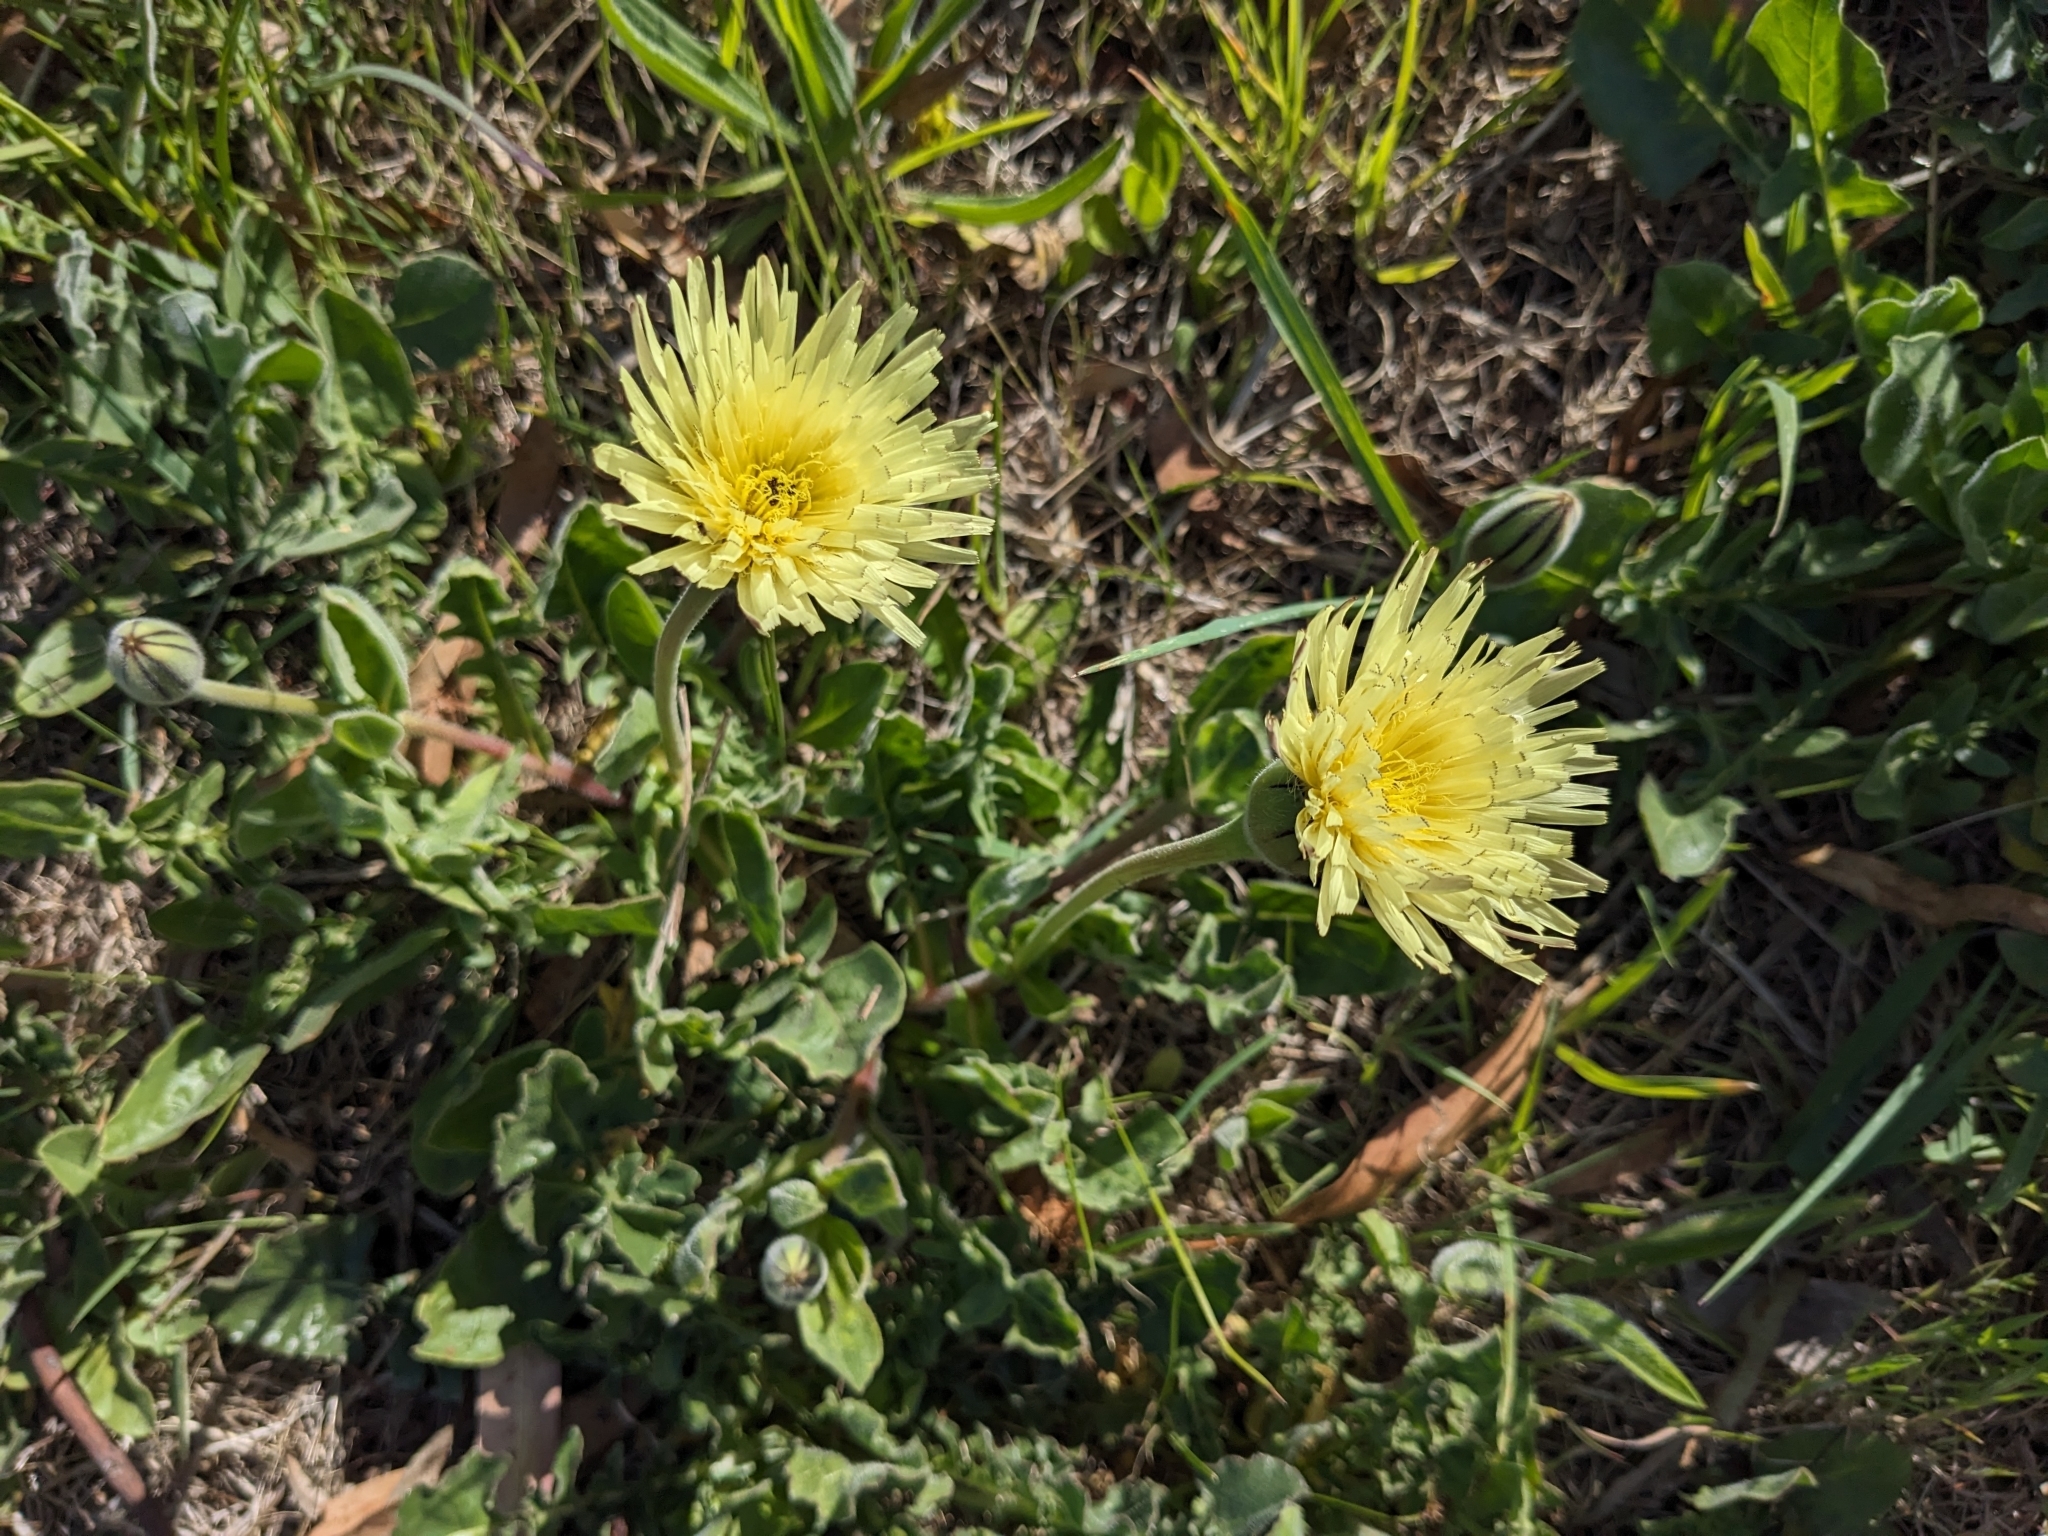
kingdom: Plantae
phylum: Tracheophyta
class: Magnoliopsida
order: Asterales
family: Asteraceae
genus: Urospermum
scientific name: Urospermum dalechampii
